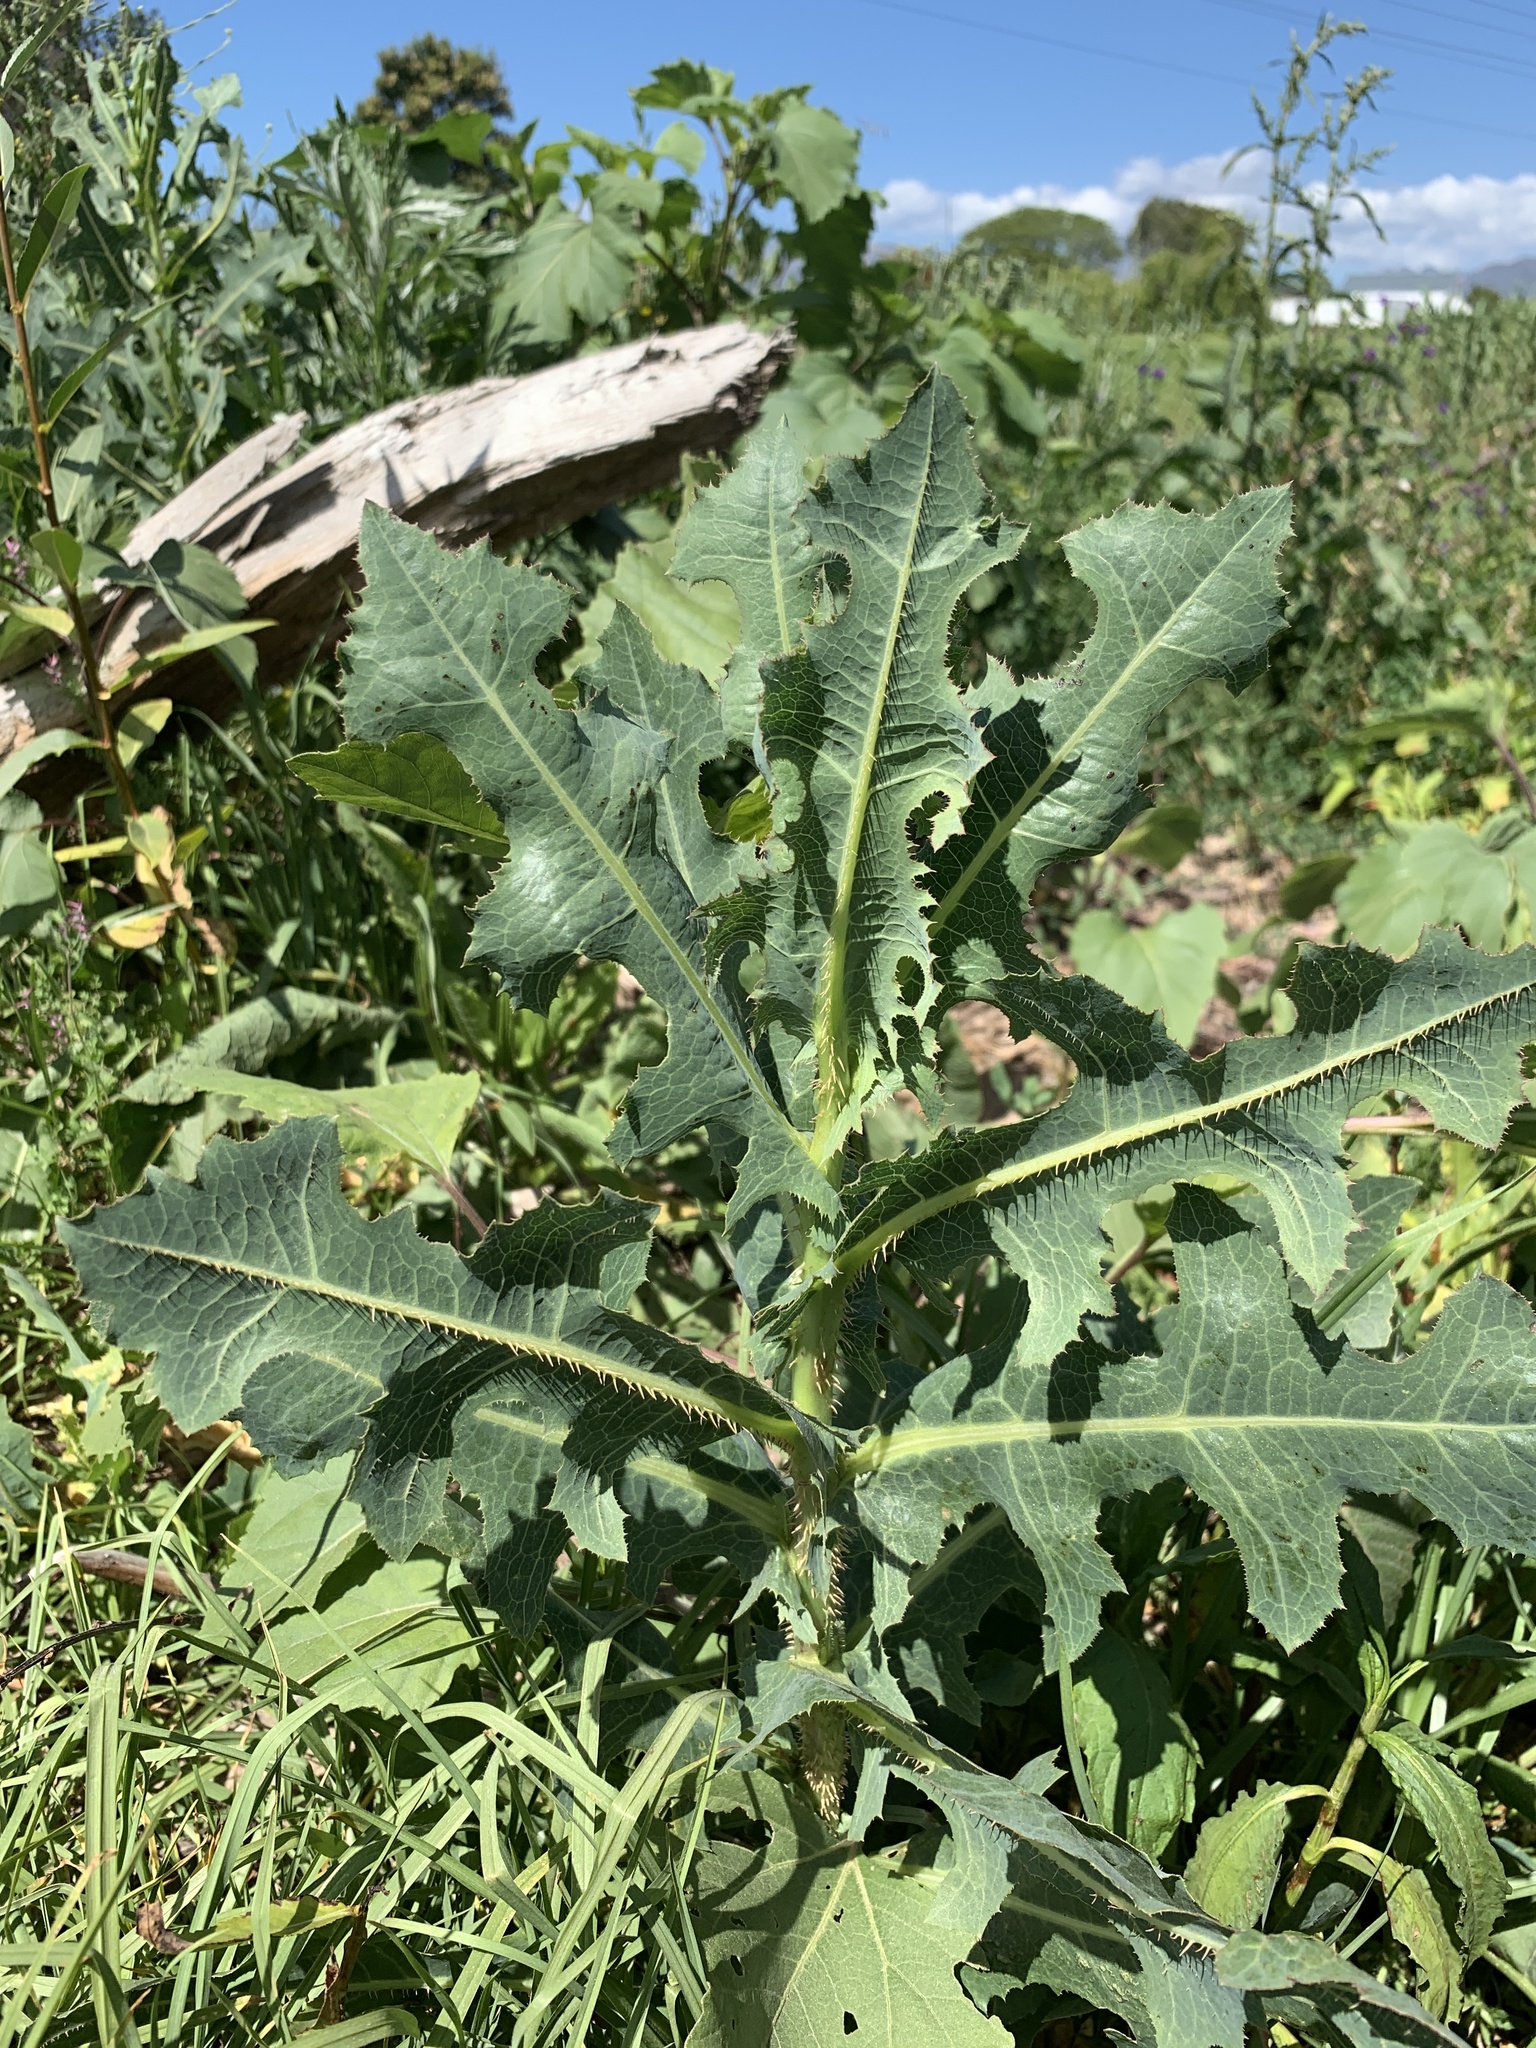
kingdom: Plantae
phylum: Tracheophyta
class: Magnoliopsida
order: Asterales
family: Asteraceae
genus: Lactuca
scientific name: Lactuca serriola
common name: Prickly lettuce
